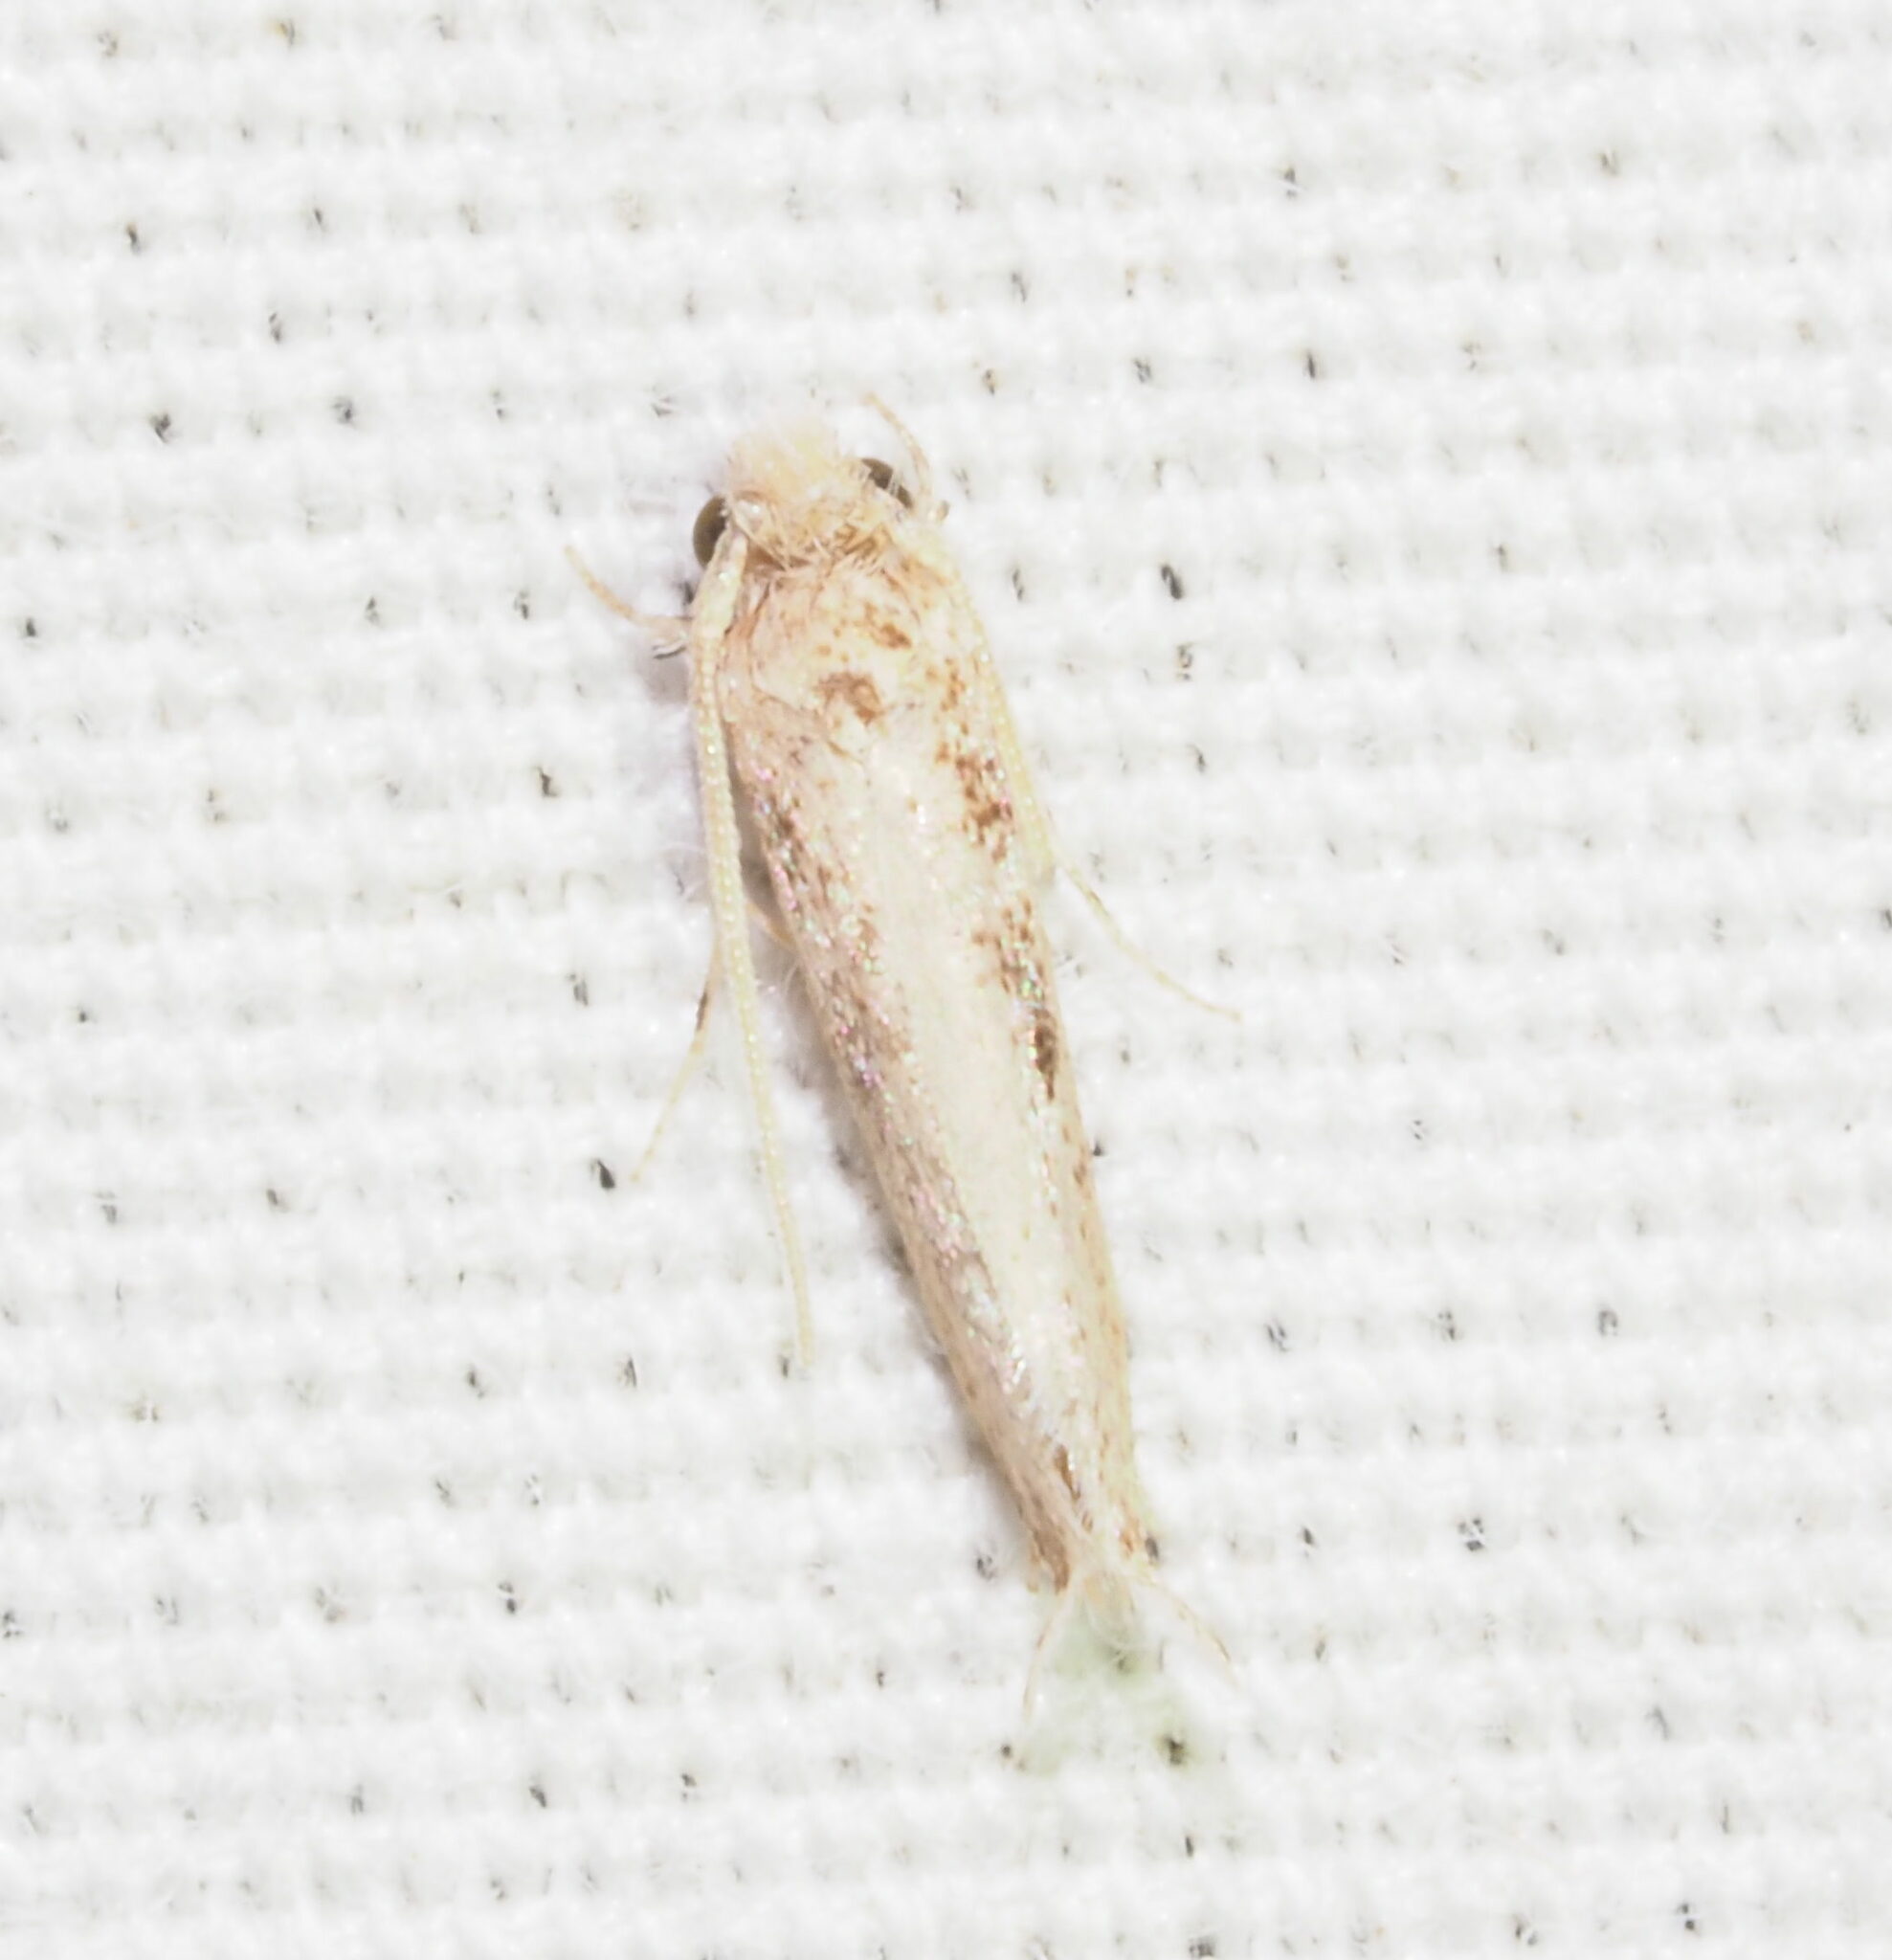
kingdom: Animalia
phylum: Arthropoda
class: Insecta
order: Lepidoptera
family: Tineidae
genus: Erechthias
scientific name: Erechthias minuscula
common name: Fungus moth
